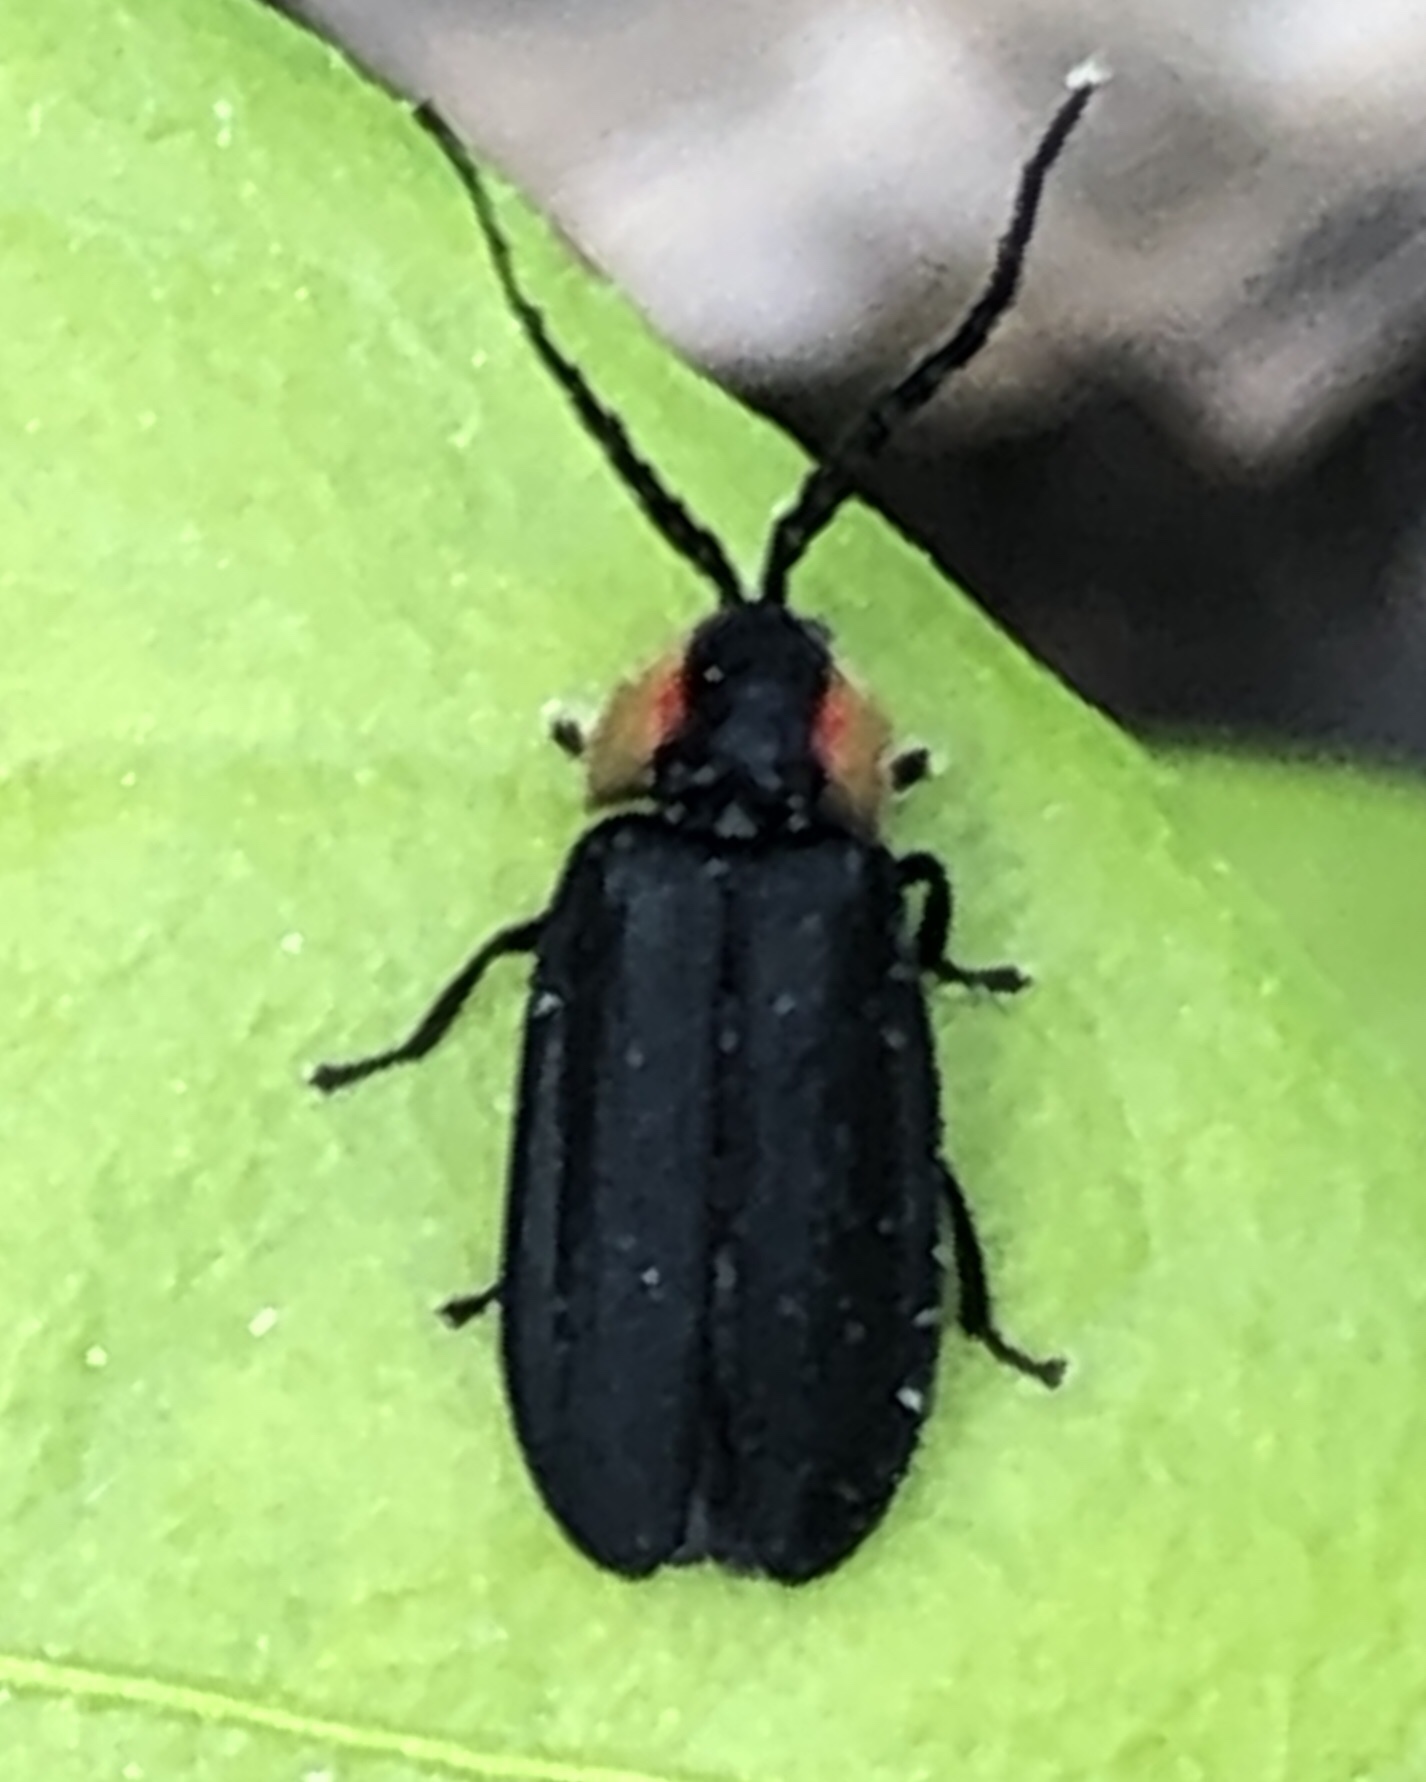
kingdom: Animalia
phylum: Arthropoda
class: Insecta
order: Coleoptera
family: Lampyridae
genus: Lucidota
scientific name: Lucidota atra
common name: Black firefly
